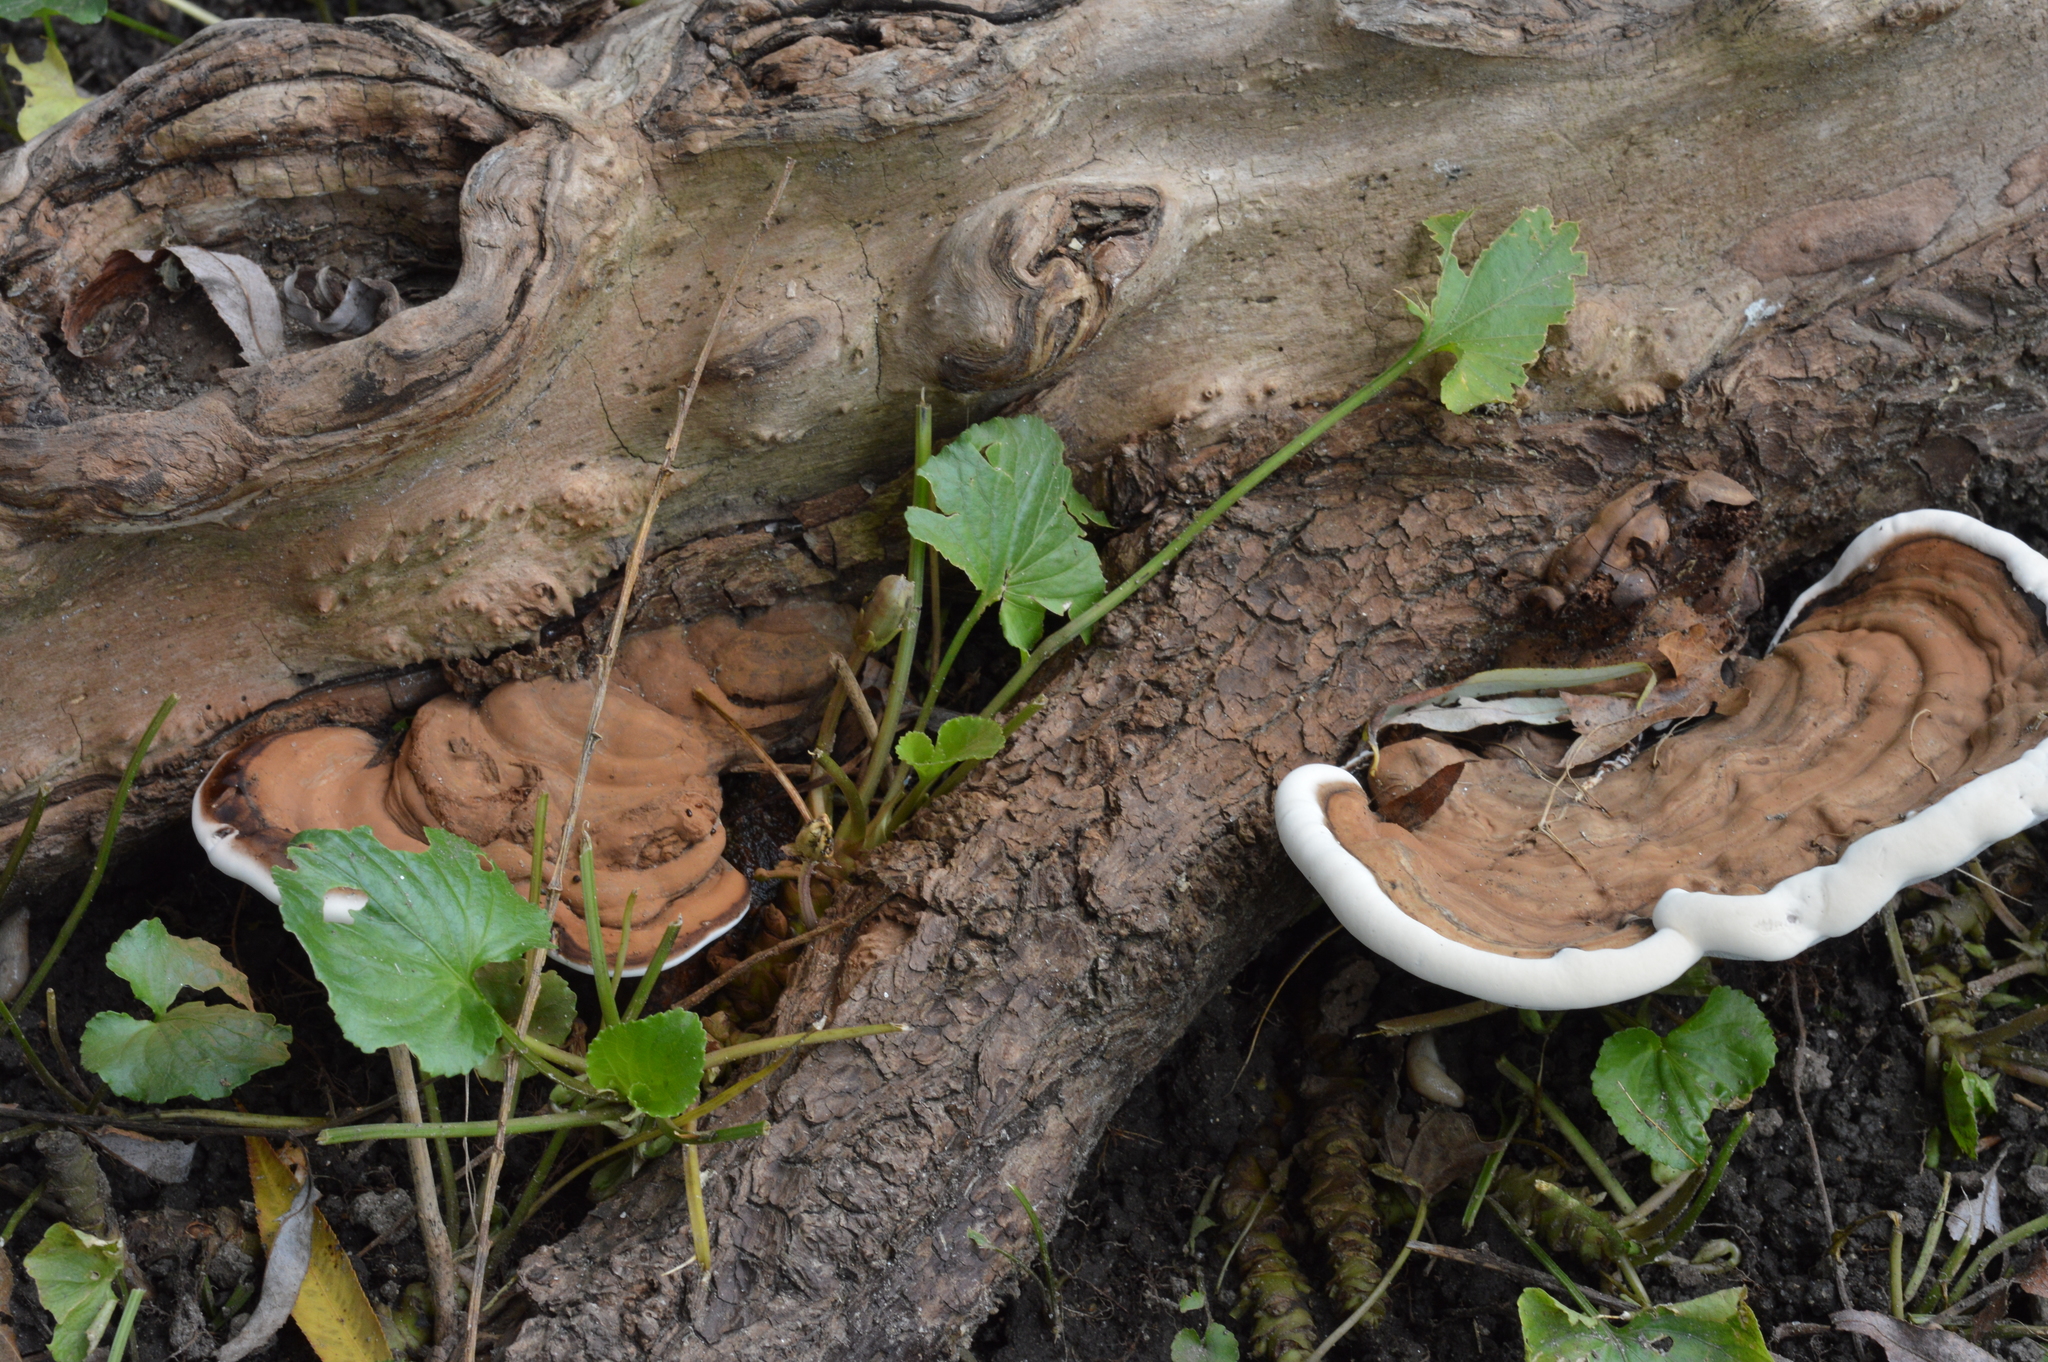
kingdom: Fungi
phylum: Basidiomycota
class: Agaricomycetes
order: Polyporales
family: Polyporaceae
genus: Ganoderma
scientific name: Ganoderma applanatum
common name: Artist's bracket
